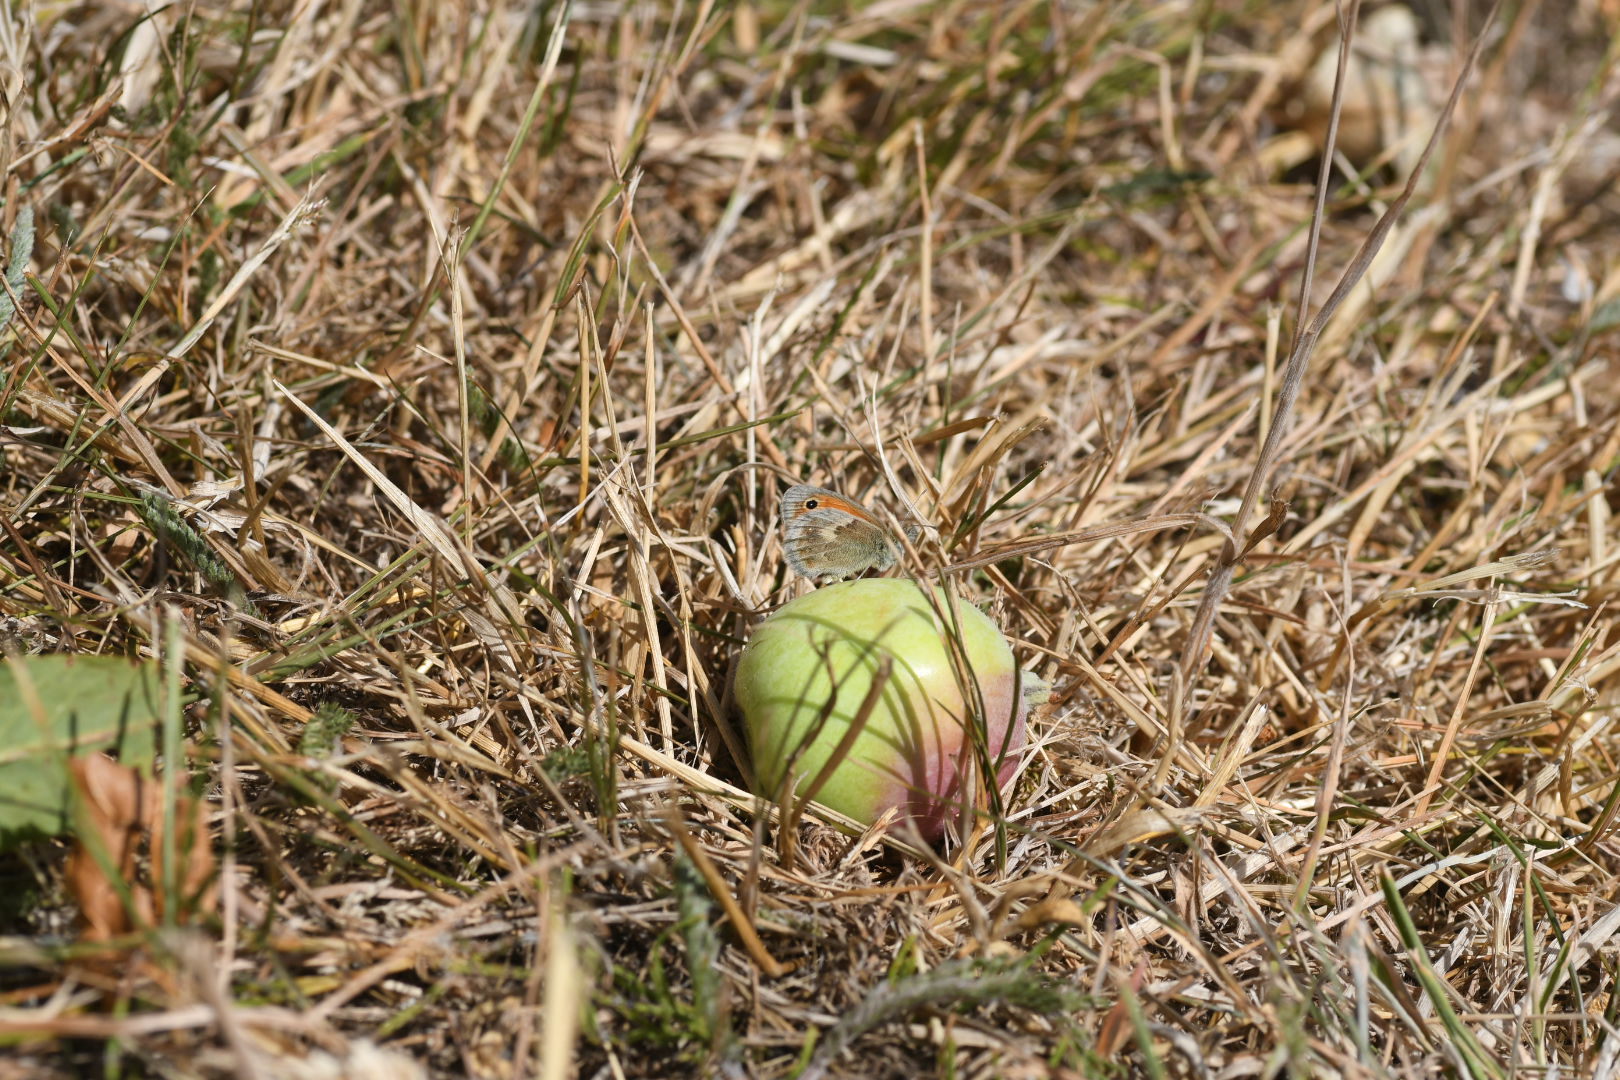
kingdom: Animalia
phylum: Arthropoda
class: Insecta
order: Lepidoptera
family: Nymphalidae
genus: Coenonympha
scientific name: Coenonympha pamphilus
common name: Small heath
